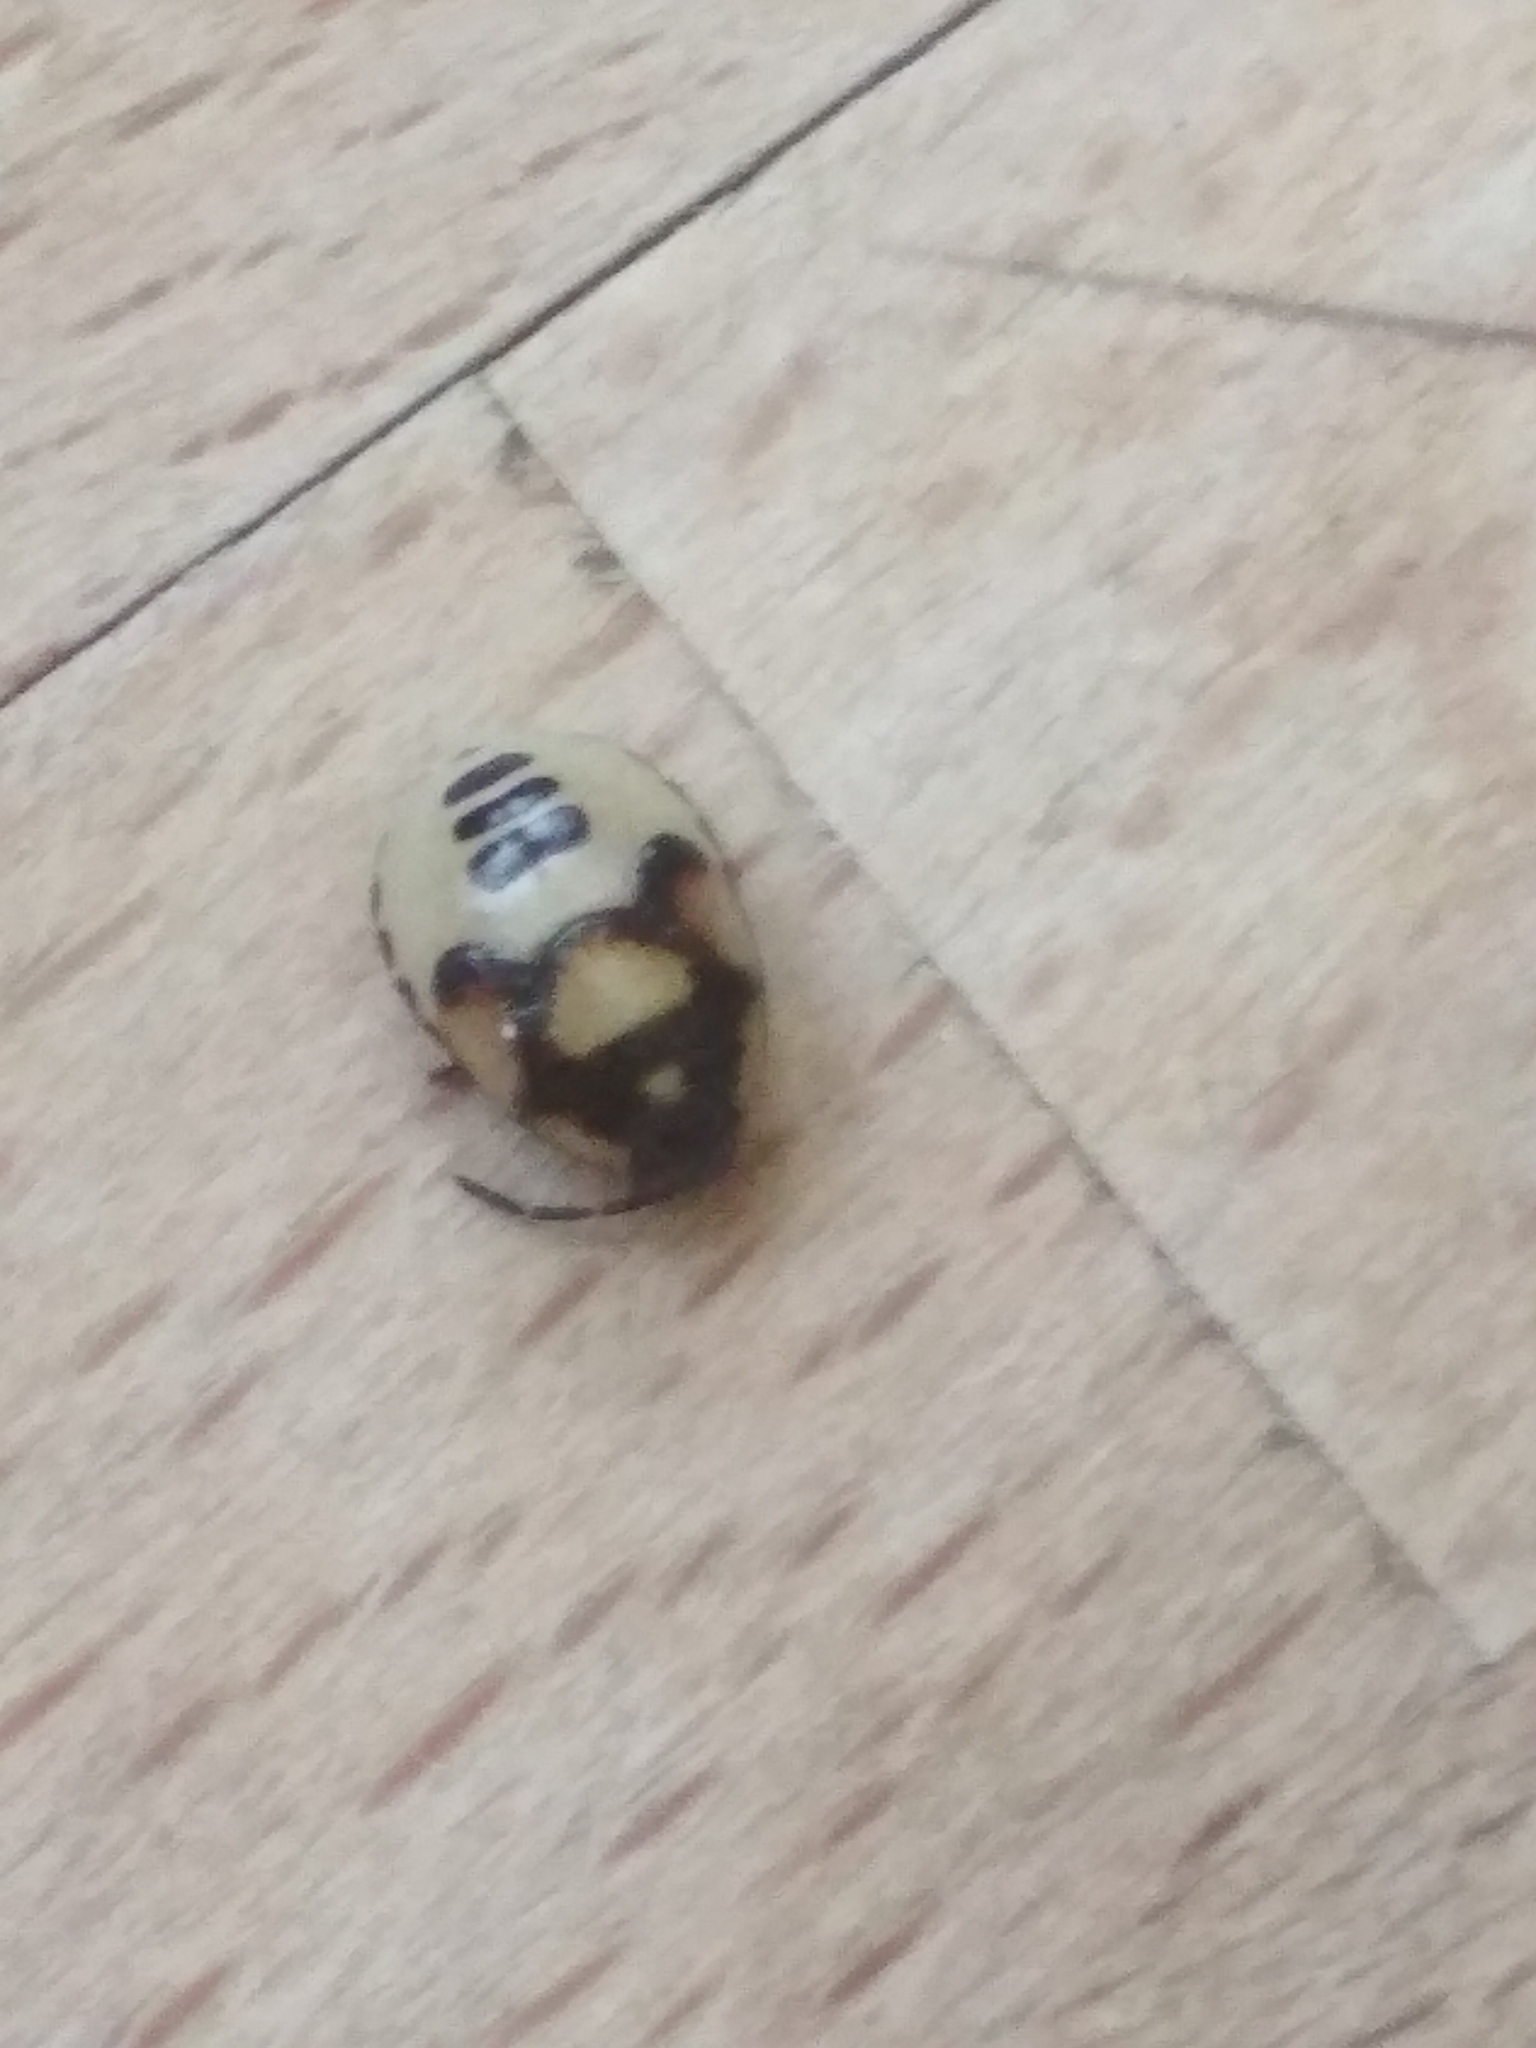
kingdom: Animalia
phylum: Arthropoda
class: Insecta
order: Hemiptera
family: Cydnidae
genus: Tritomegas
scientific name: Tritomegas bicolor
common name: Pied shieldbug
